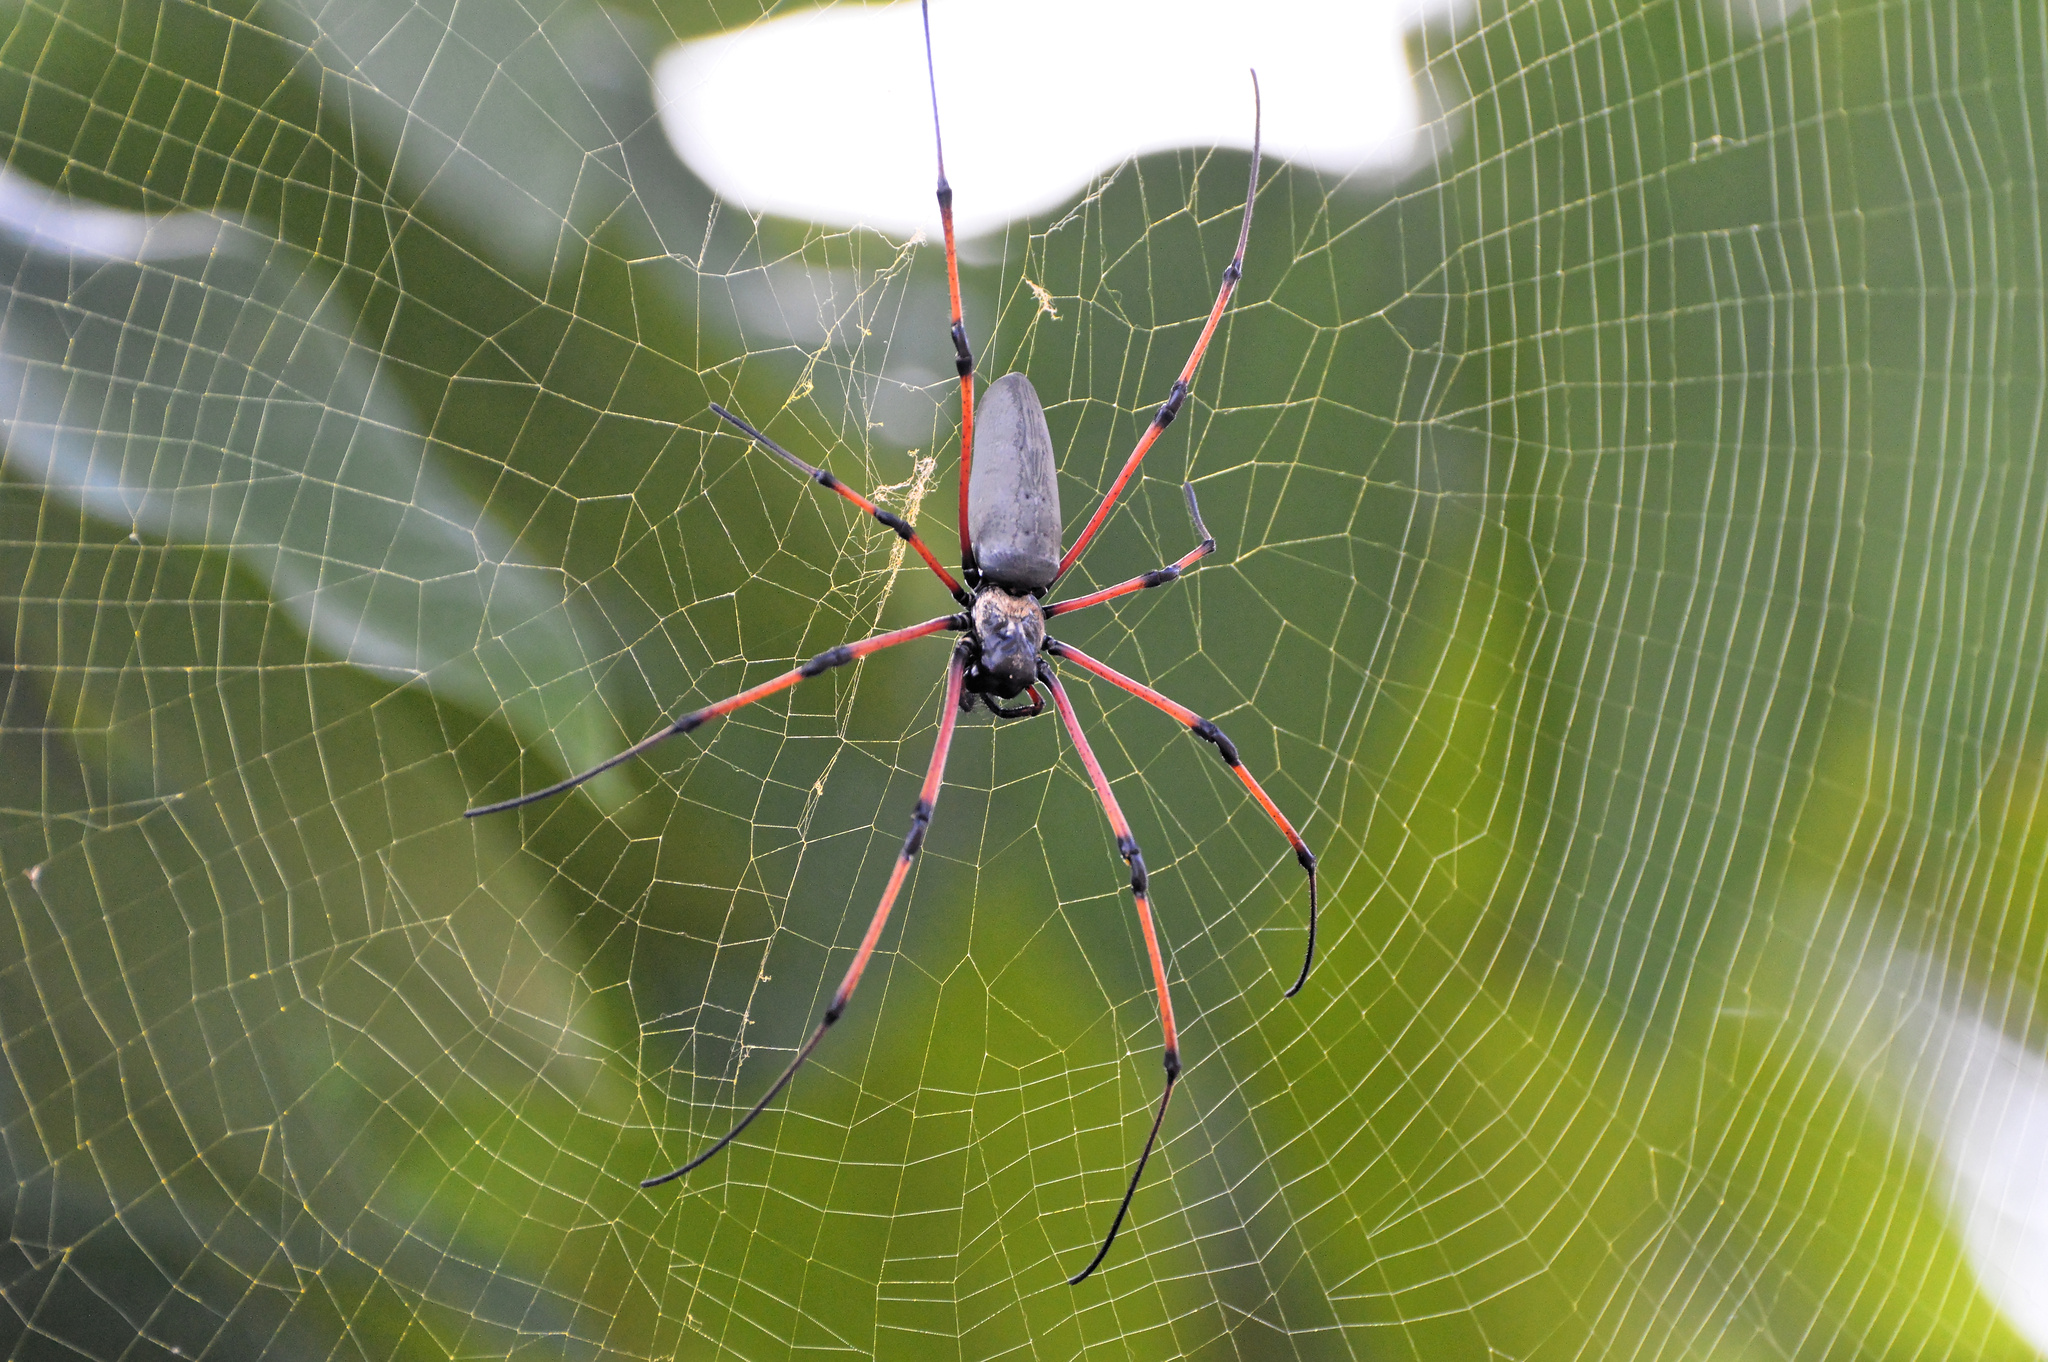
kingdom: Animalia
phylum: Arthropoda
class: Arachnida
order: Araneae
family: Araneidae
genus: Nephila
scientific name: Nephila pilipes
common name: Giant golden orb weaver
